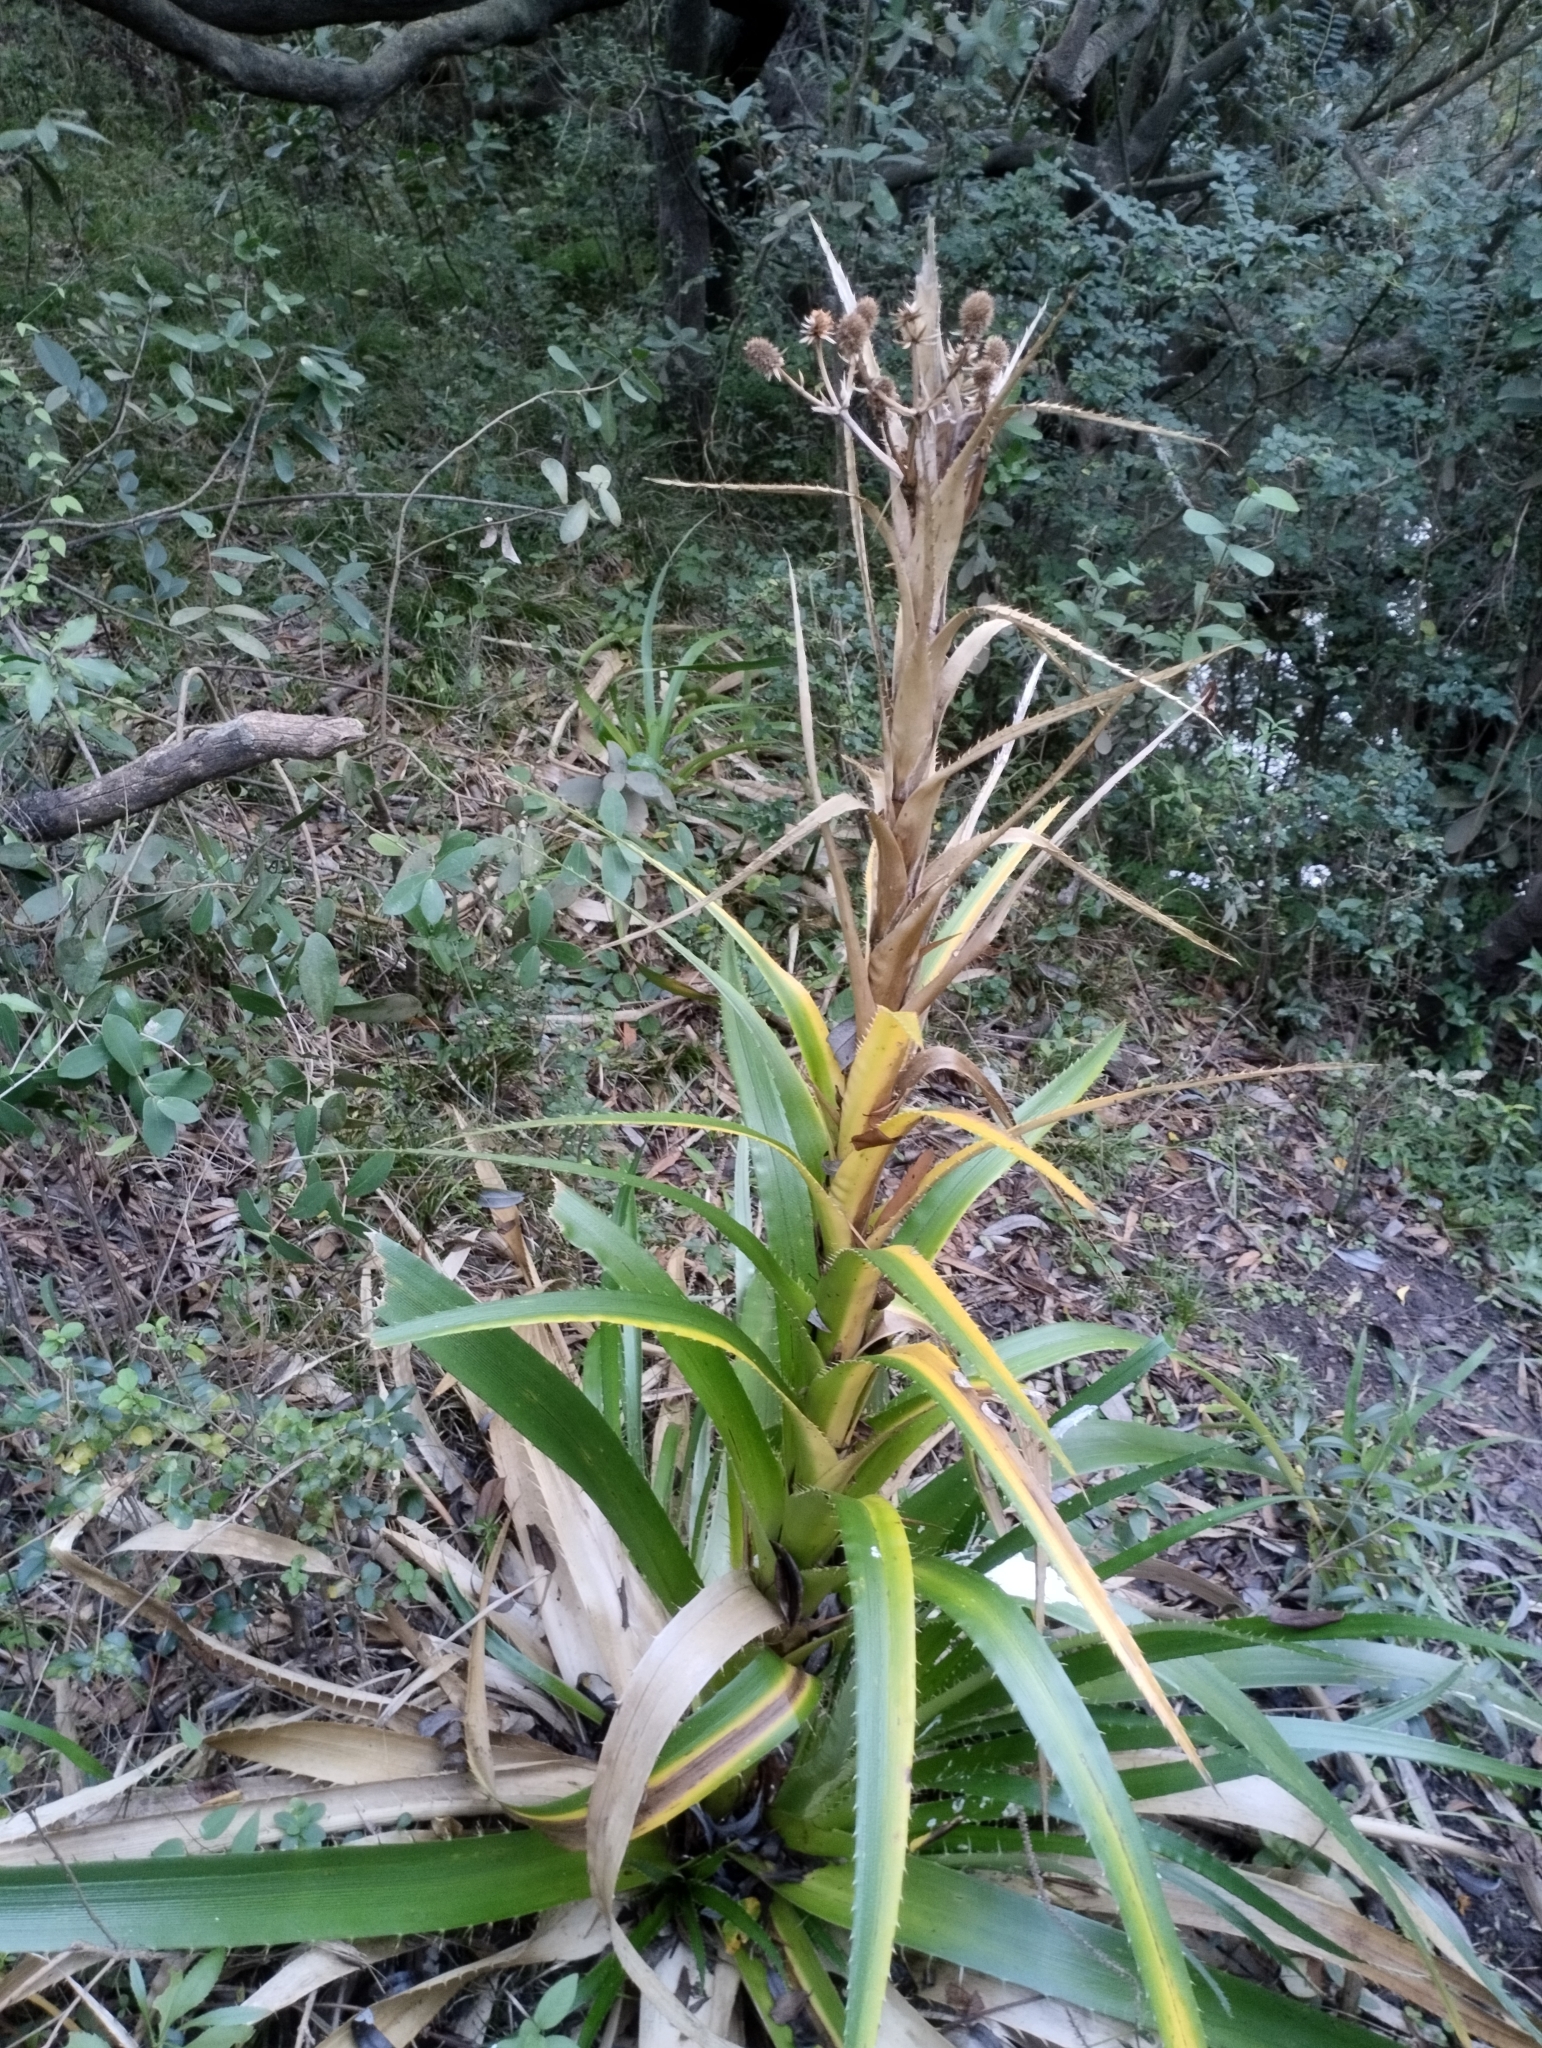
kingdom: Plantae
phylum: Tracheophyta
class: Magnoliopsida
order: Apiales
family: Apiaceae
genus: Eryngium
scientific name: Eryngium eburneum
